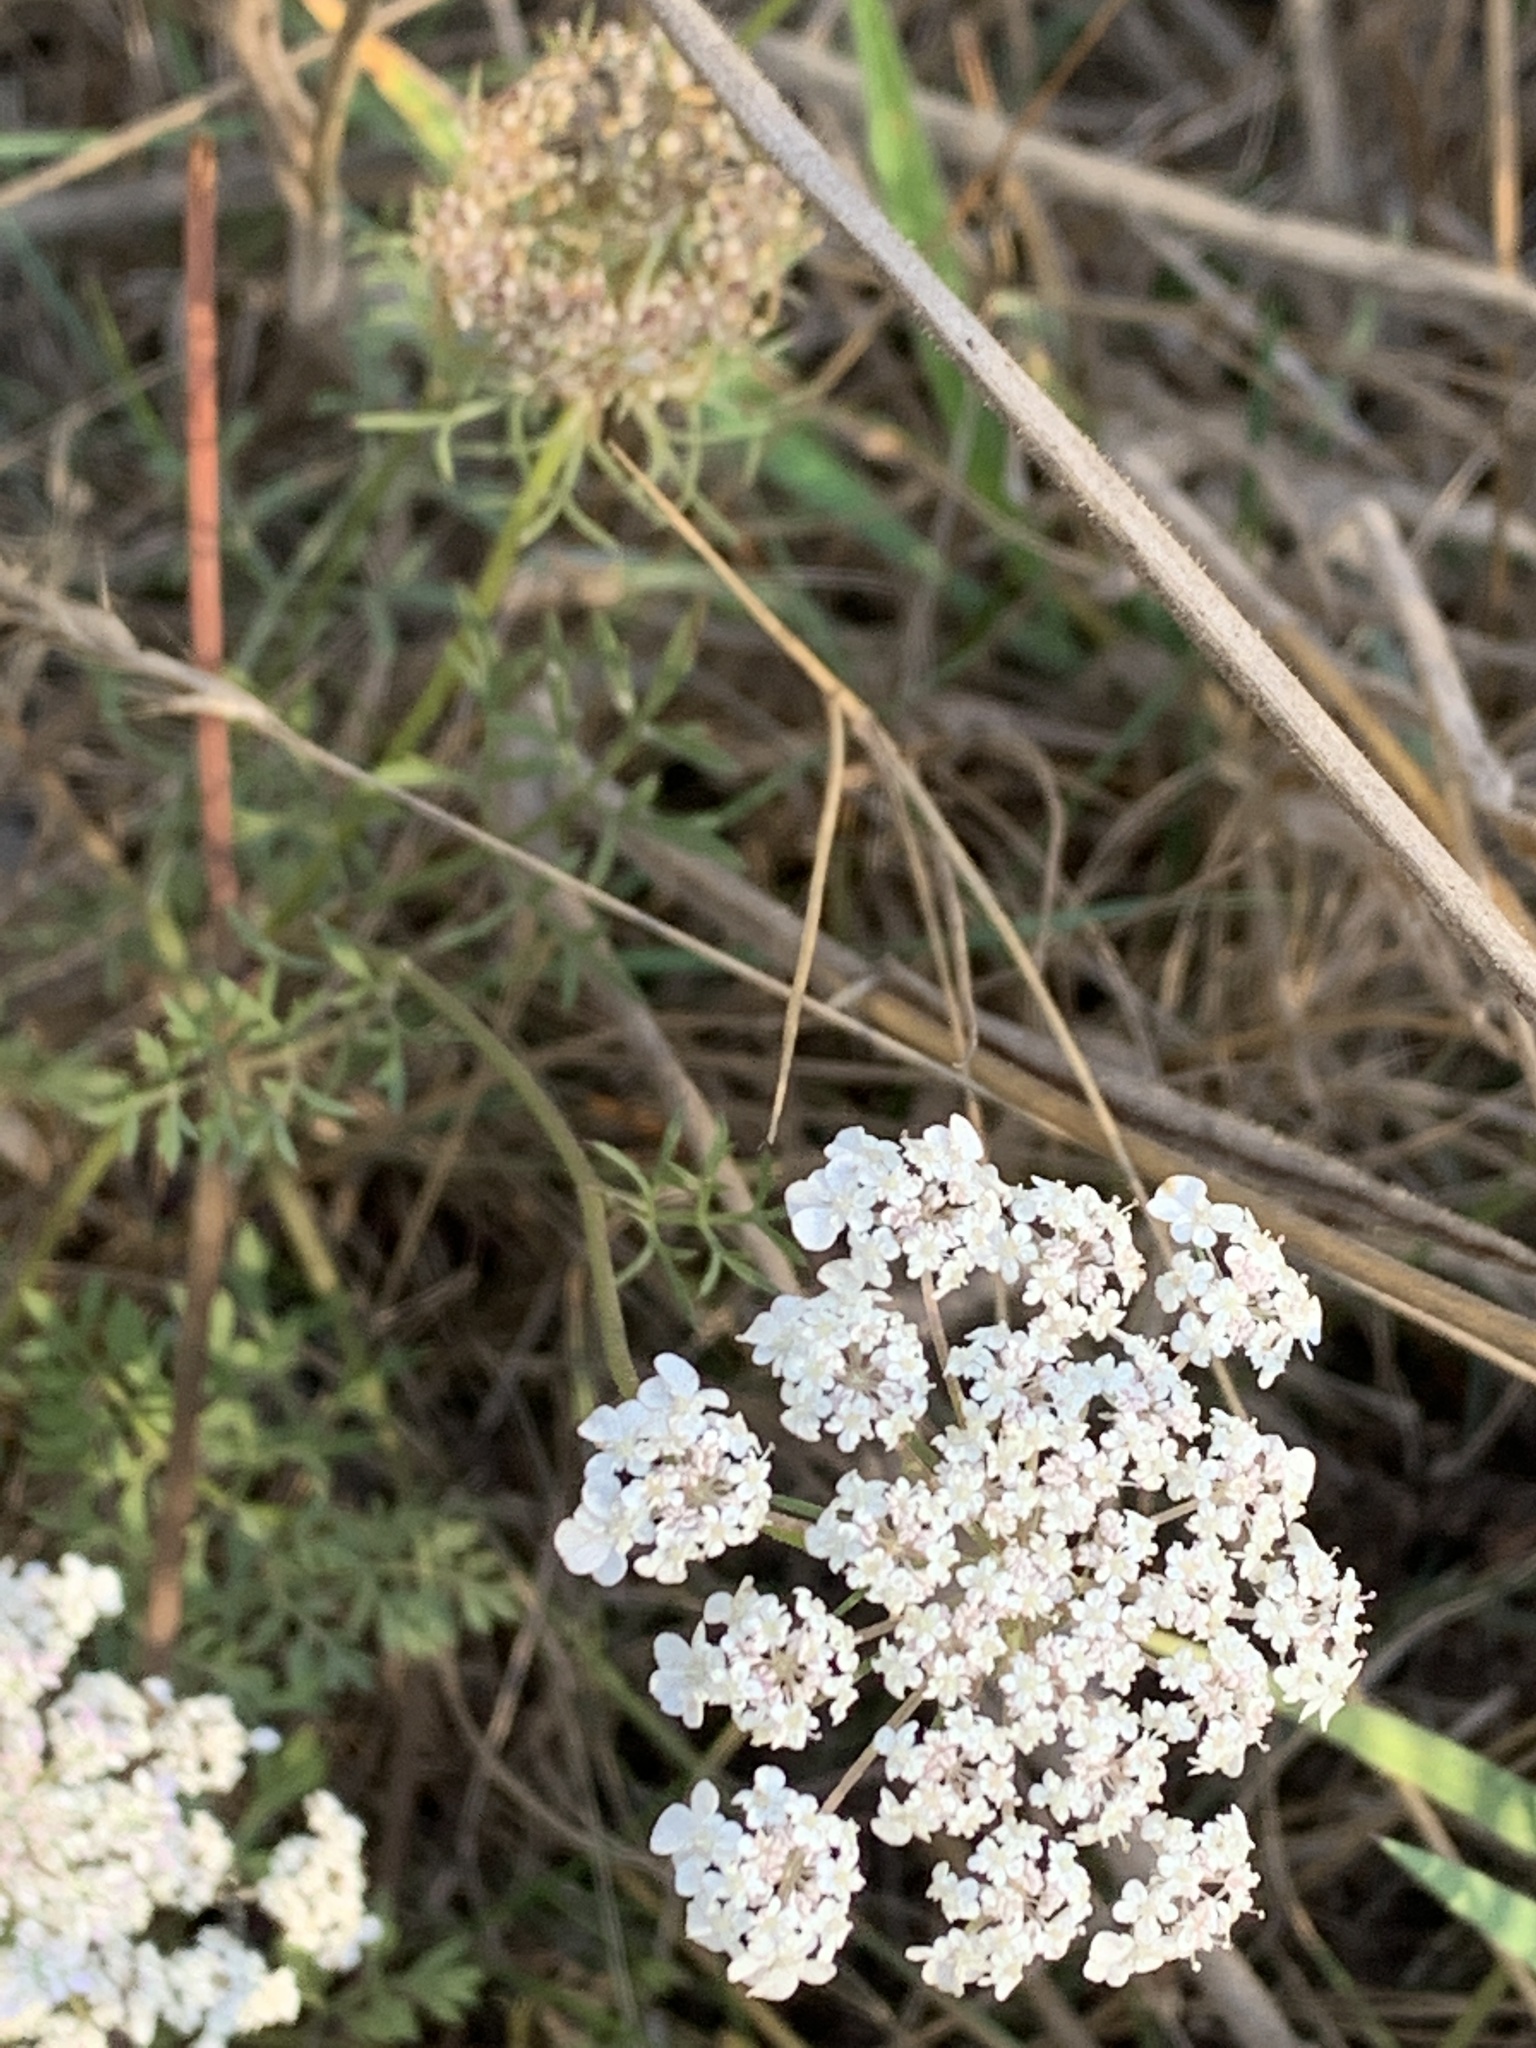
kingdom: Plantae
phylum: Tracheophyta
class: Magnoliopsida
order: Apiales
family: Apiaceae
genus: Daucus
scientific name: Daucus carota
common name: Wild carrot
